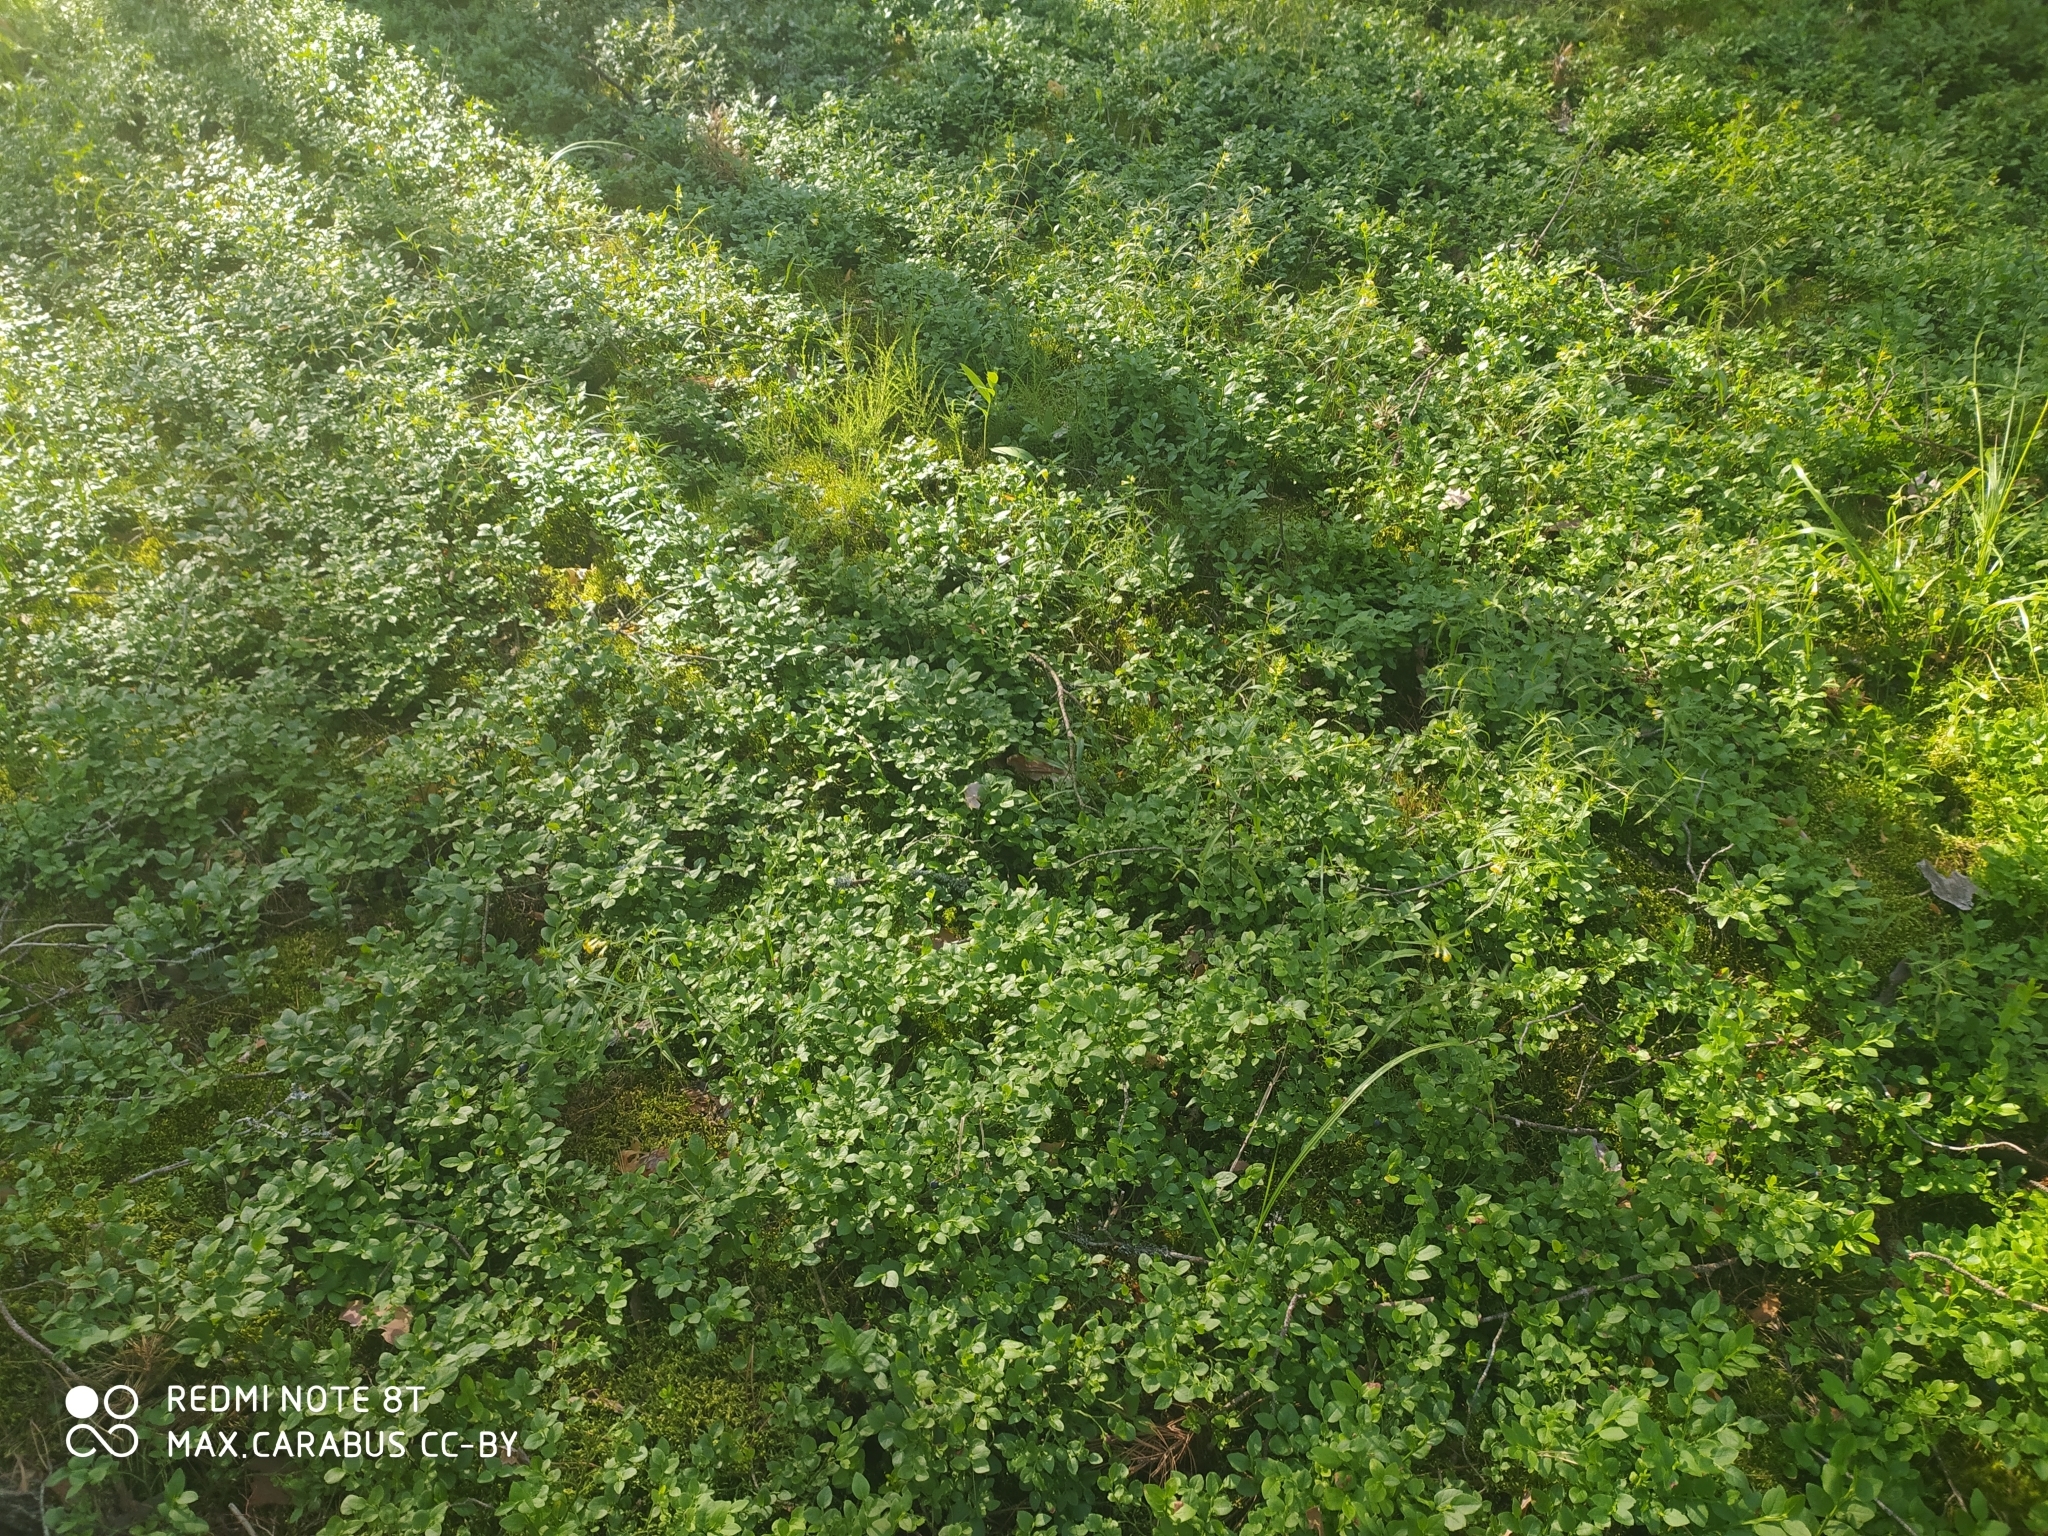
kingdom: Plantae
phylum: Tracheophyta
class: Magnoliopsida
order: Ericales
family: Ericaceae
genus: Vaccinium
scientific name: Vaccinium myrtillus
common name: Bilberry
